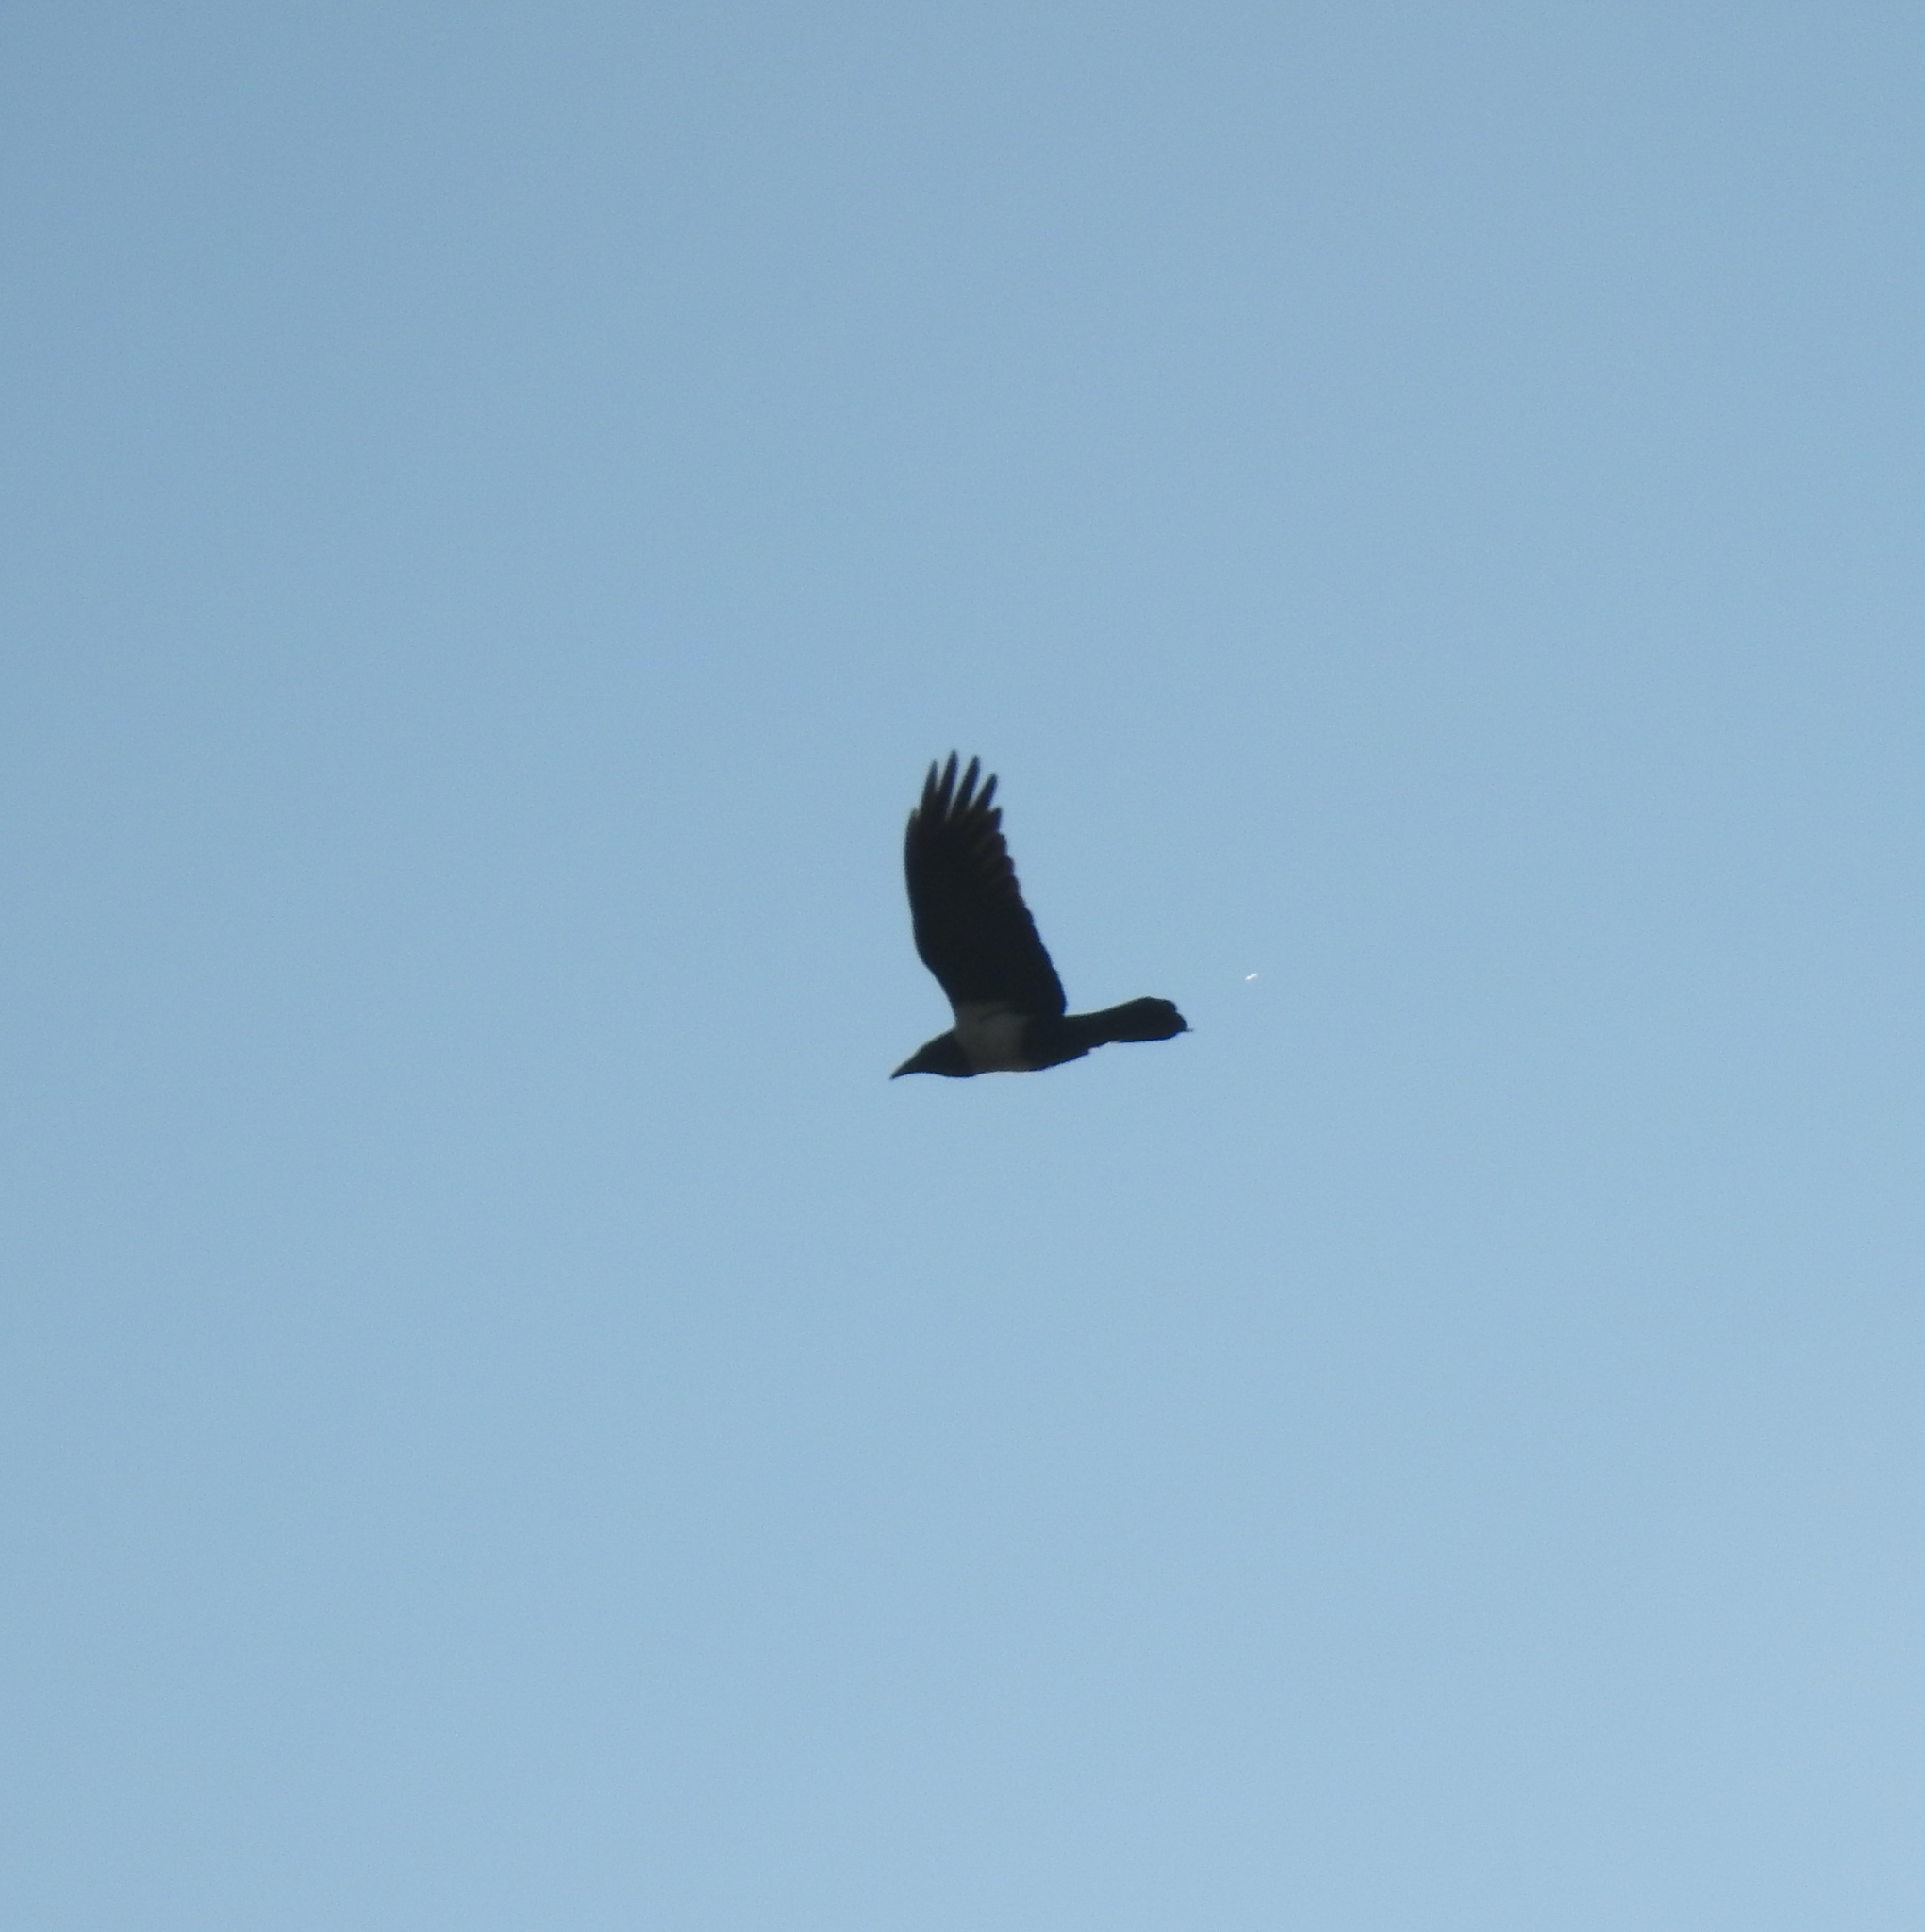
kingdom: Animalia
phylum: Chordata
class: Aves
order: Passeriformes
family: Corvidae
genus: Corvus
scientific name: Corvus albus
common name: Pied crow
